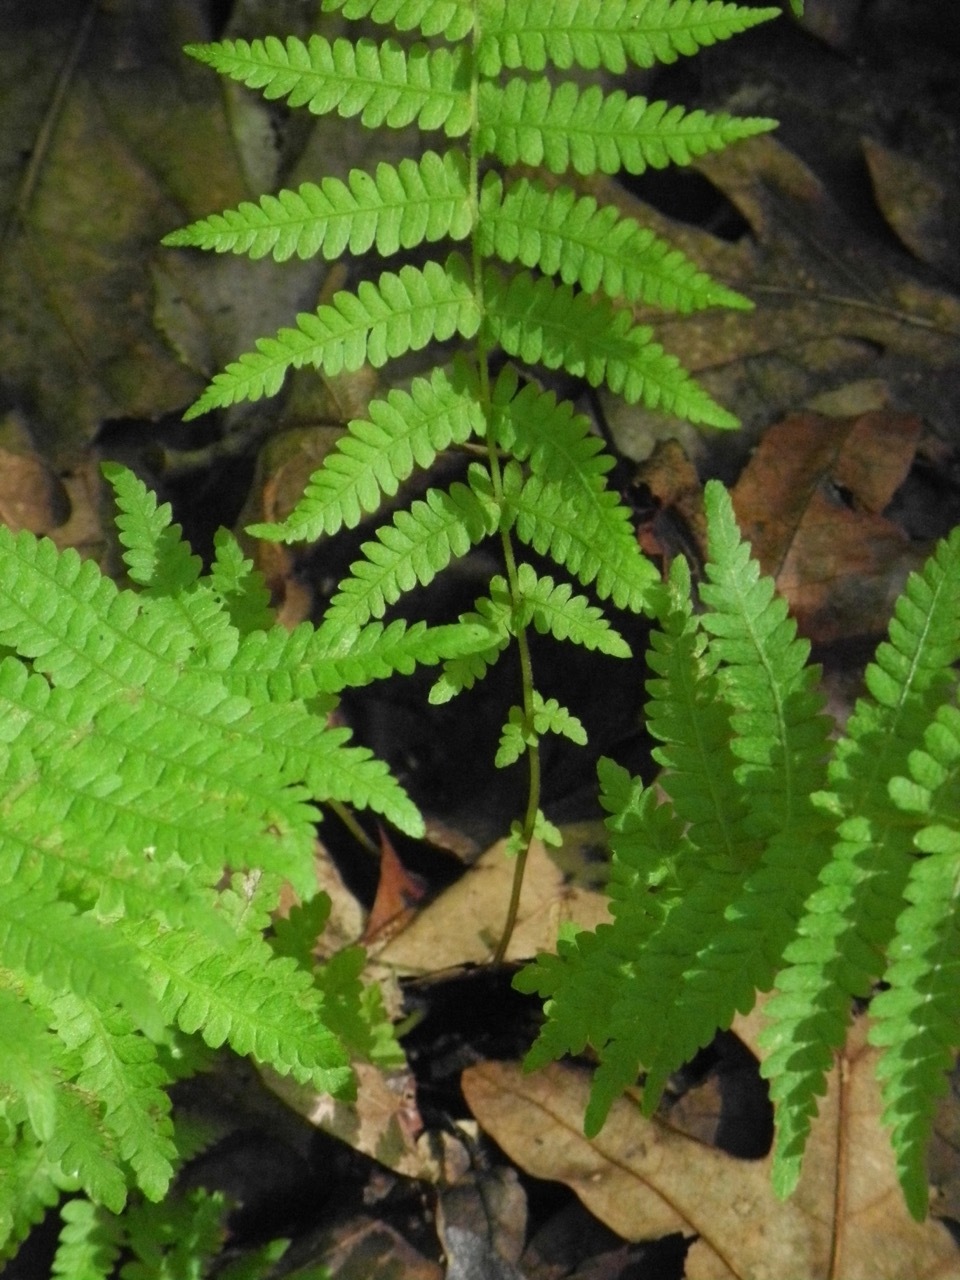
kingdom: Plantae
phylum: Tracheophyta
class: Polypodiopsida
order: Polypodiales
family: Thelypteridaceae
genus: Amauropelta
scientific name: Amauropelta noveboracensis
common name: New york fern
